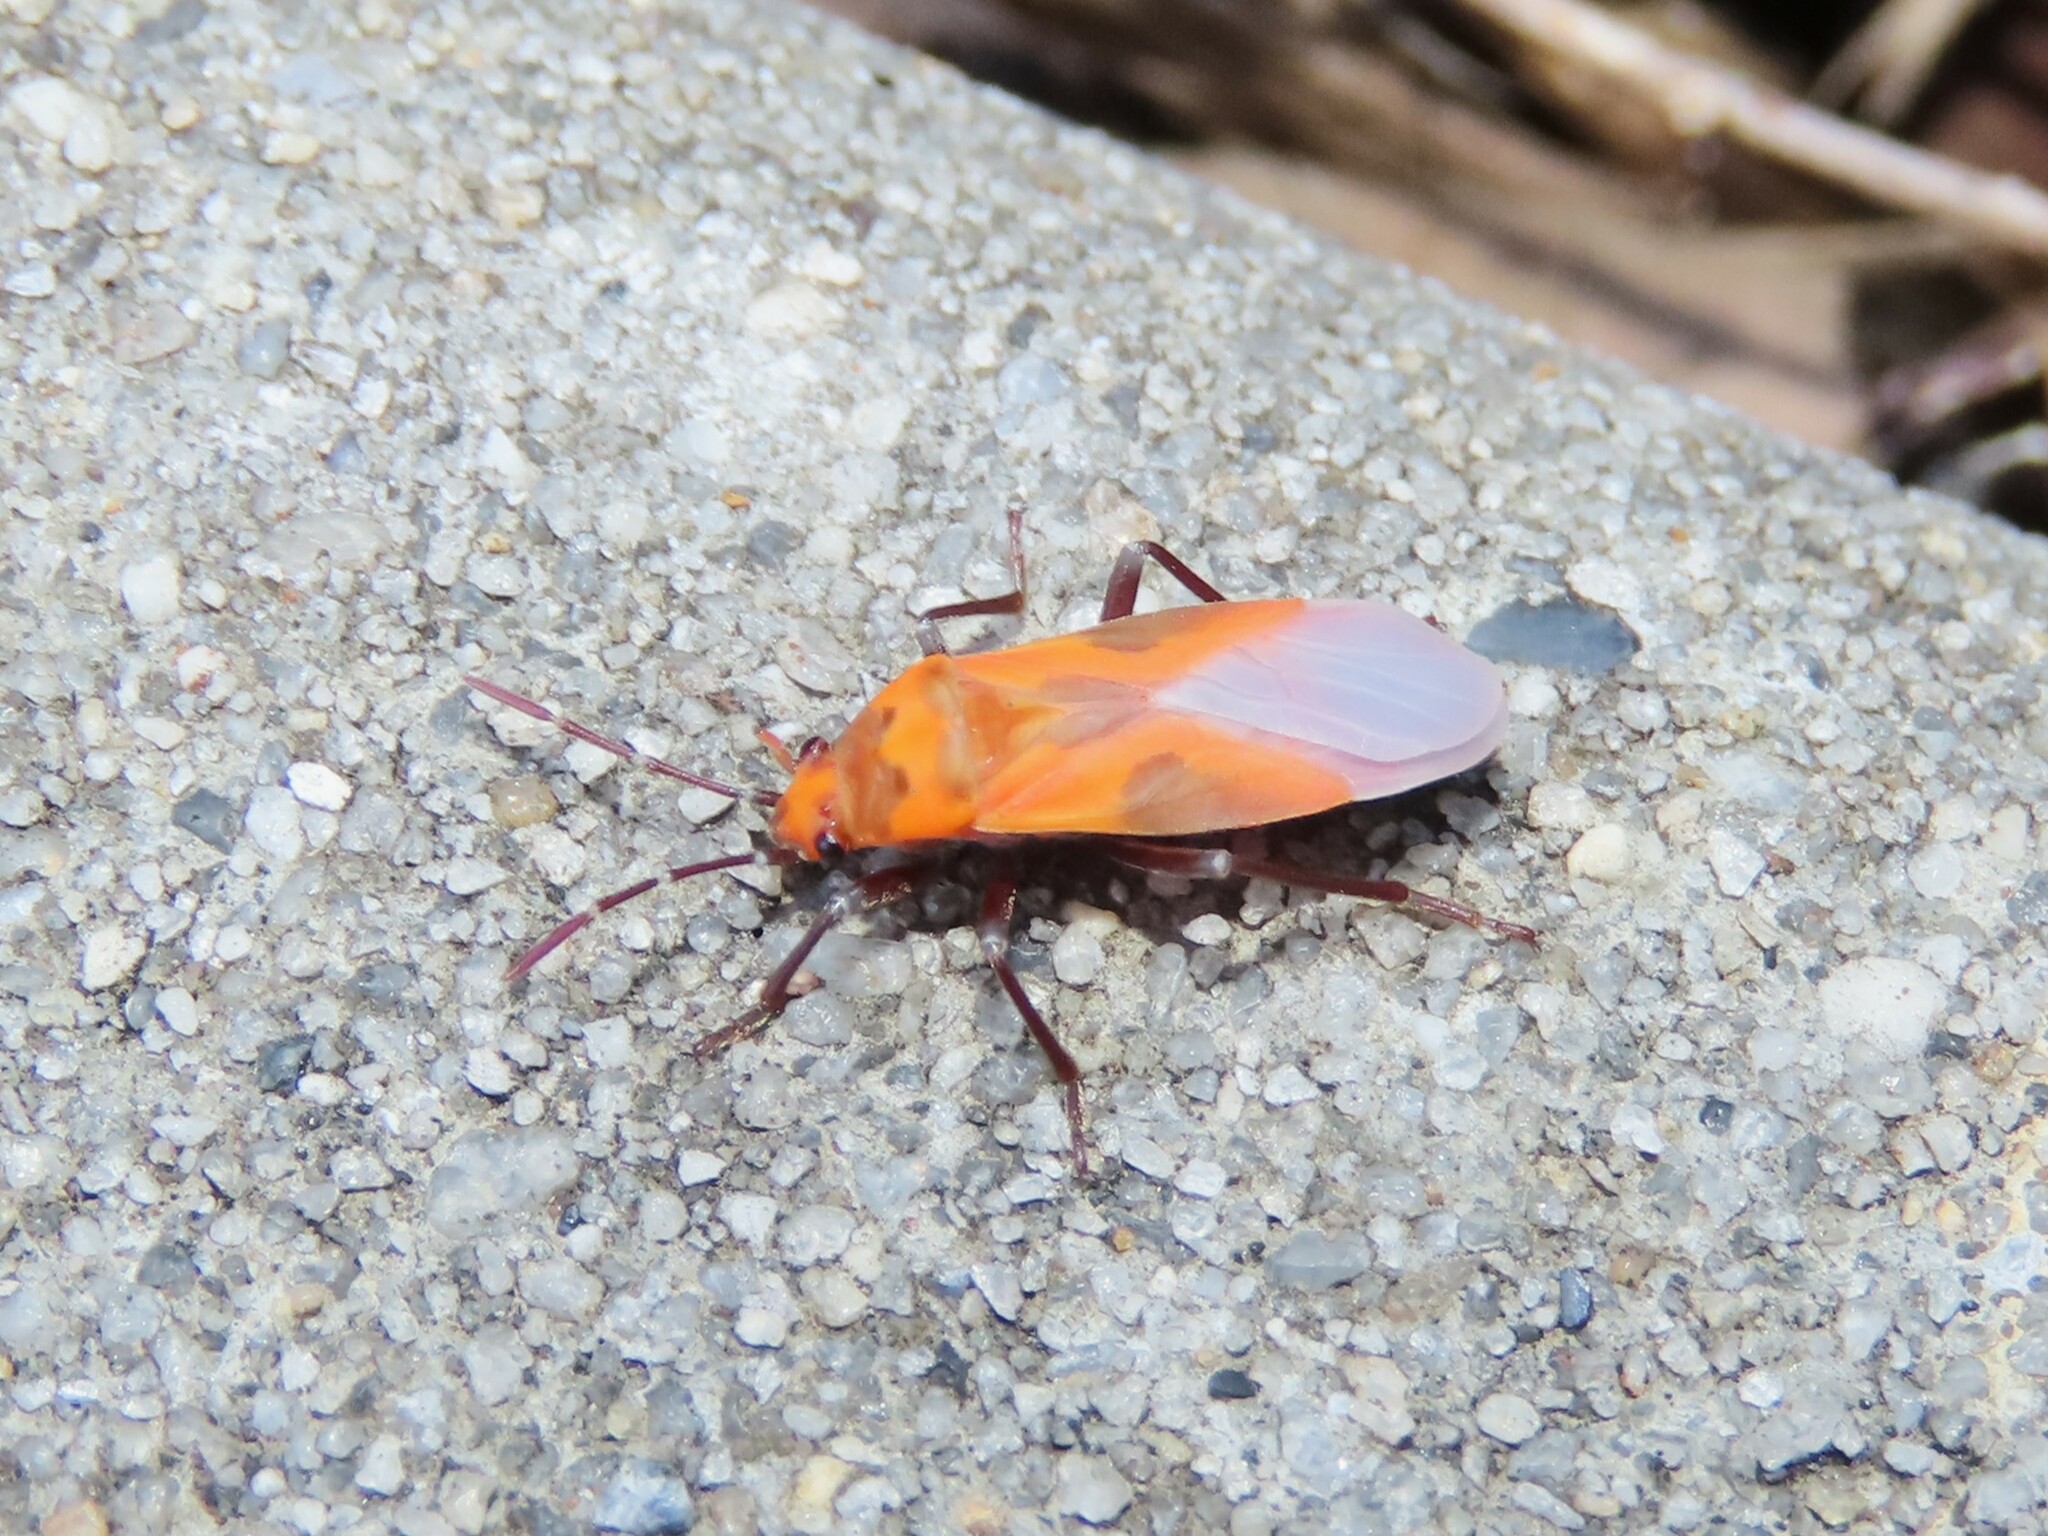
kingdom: Animalia
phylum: Arthropoda
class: Insecta
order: Hemiptera
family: Lygaeidae
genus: Lygaeus
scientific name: Lygaeus turcicus
